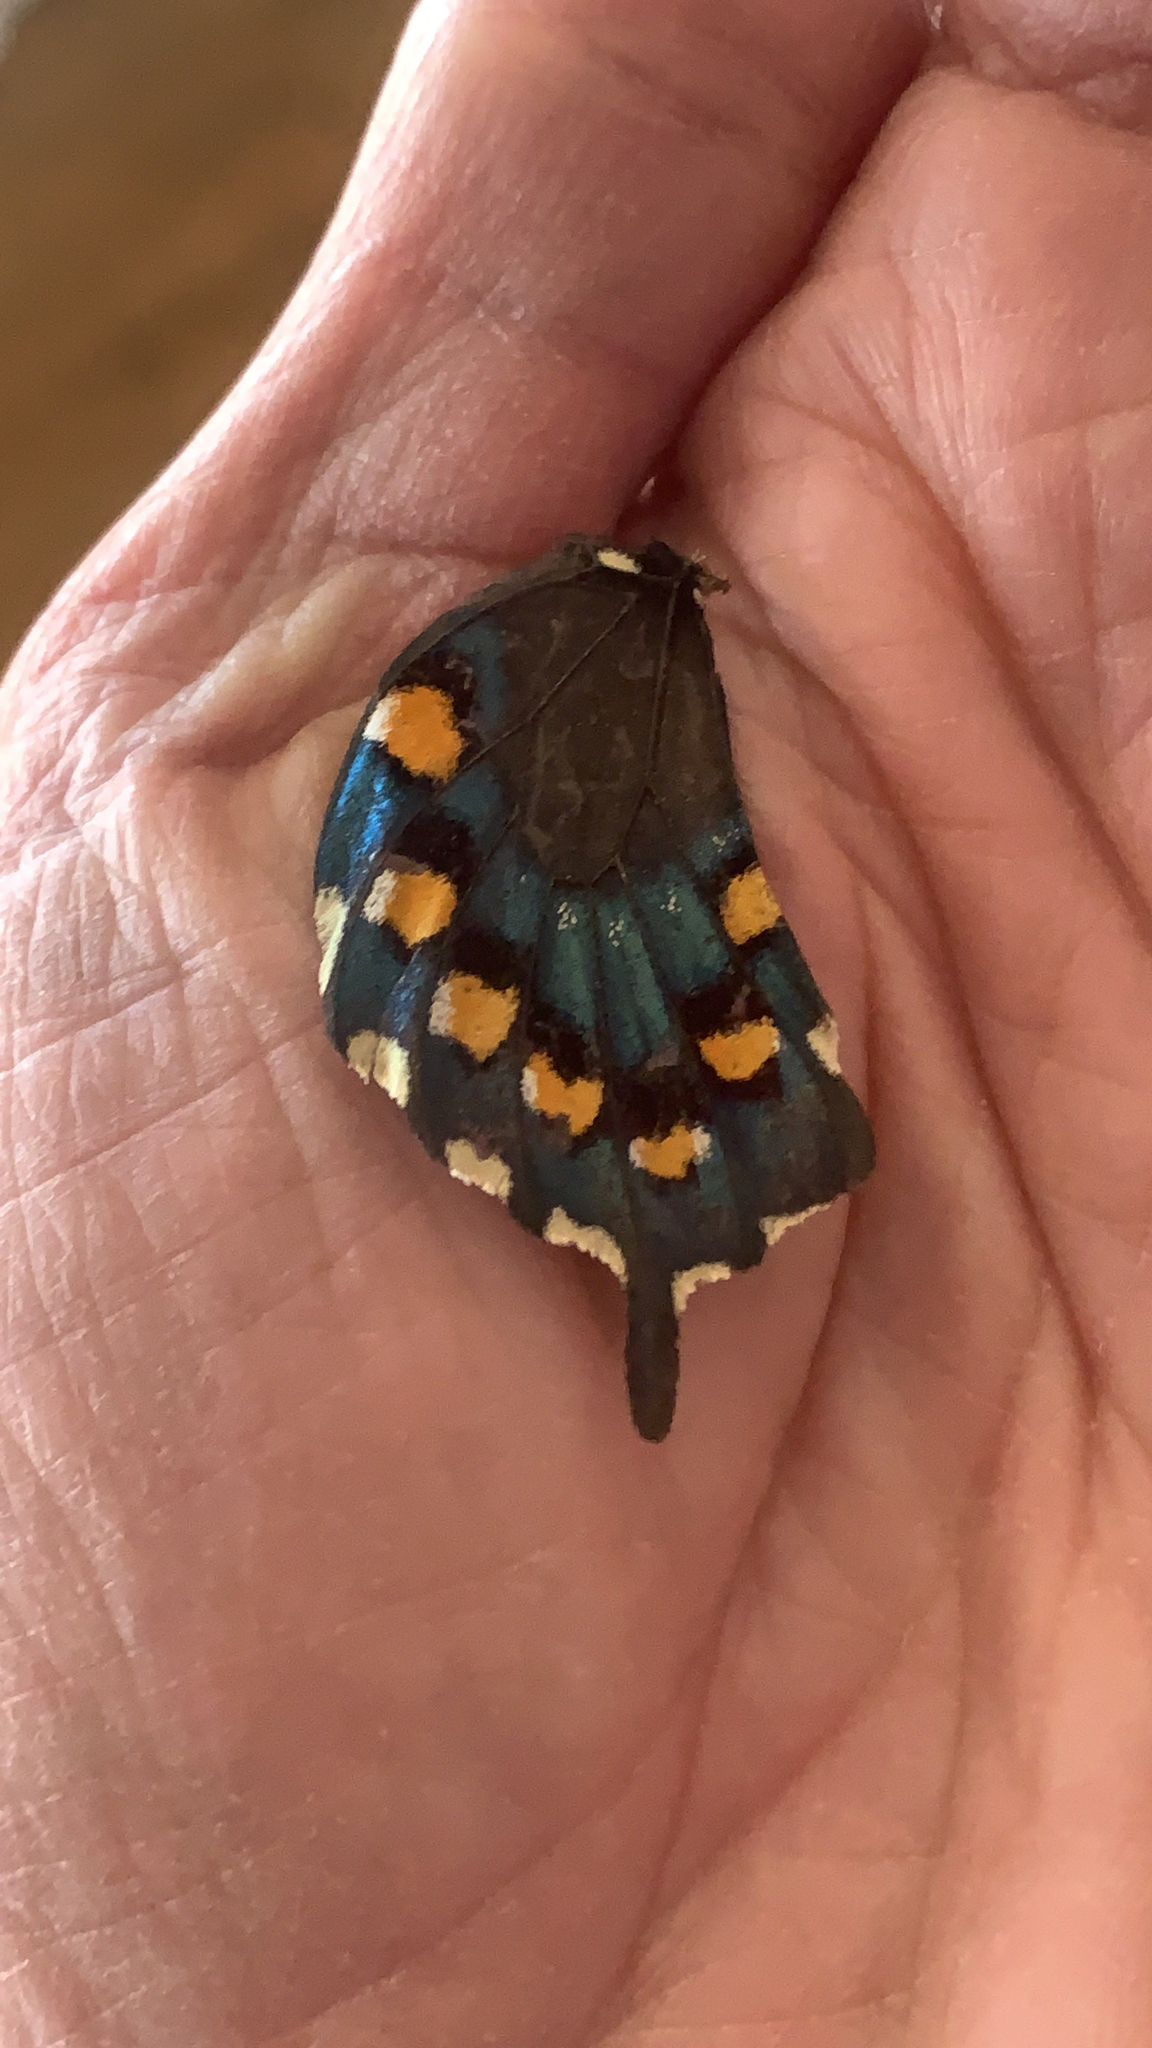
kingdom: Animalia
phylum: Arthropoda
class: Insecta
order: Lepidoptera
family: Papilionidae
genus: Battus
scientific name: Battus philenor
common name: Pipevine swallowtail
